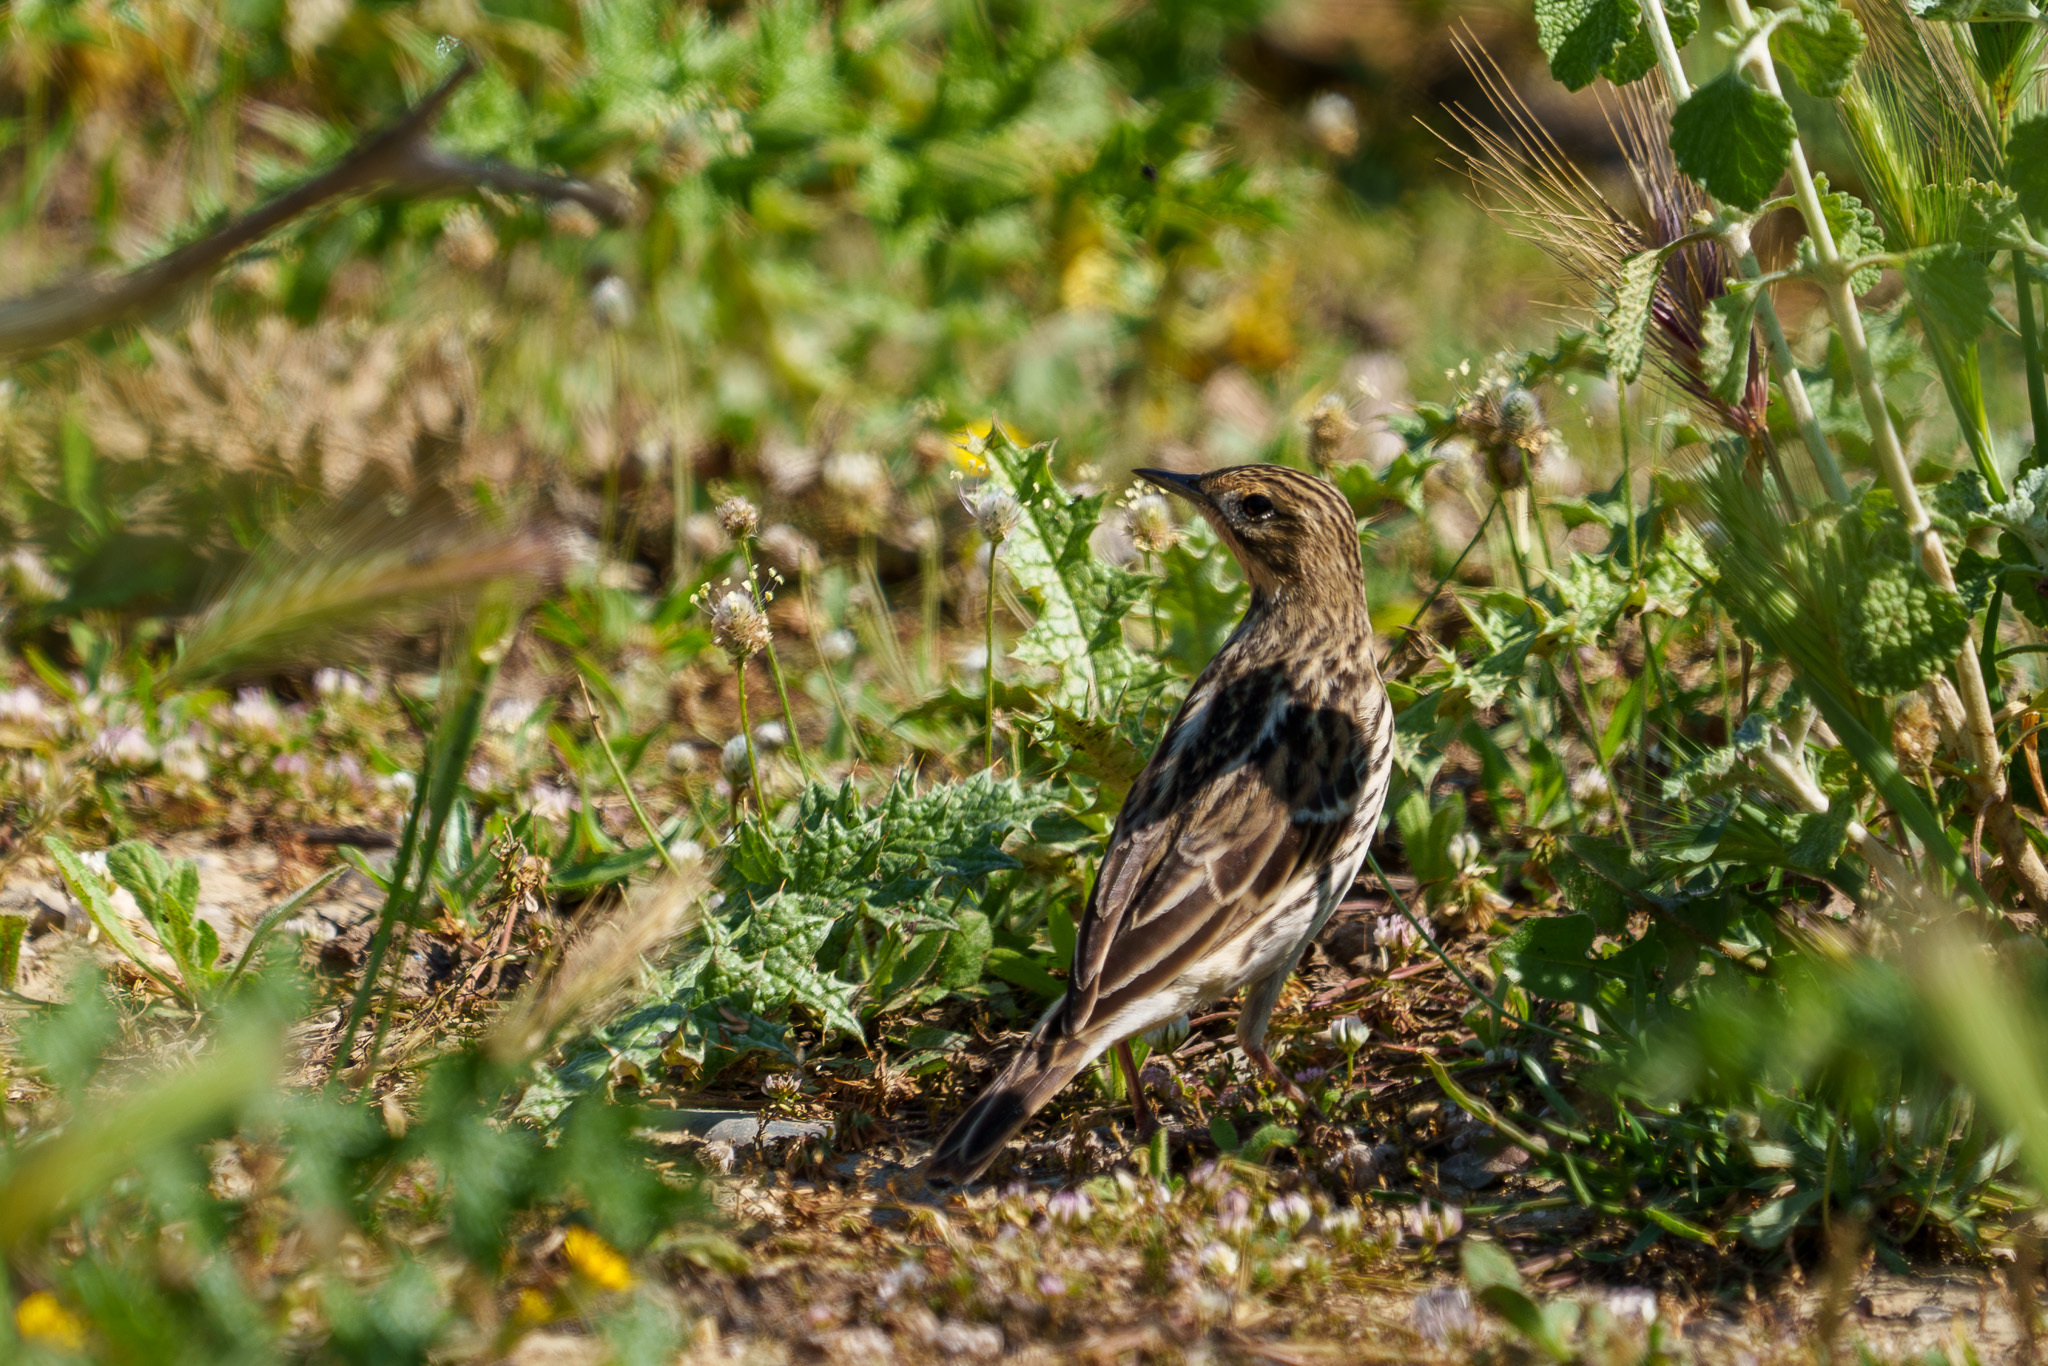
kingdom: Animalia
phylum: Chordata
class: Aves
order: Passeriformes
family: Motacillidae
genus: Anthus
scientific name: Anthus cervinus
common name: Red-throated pipit
